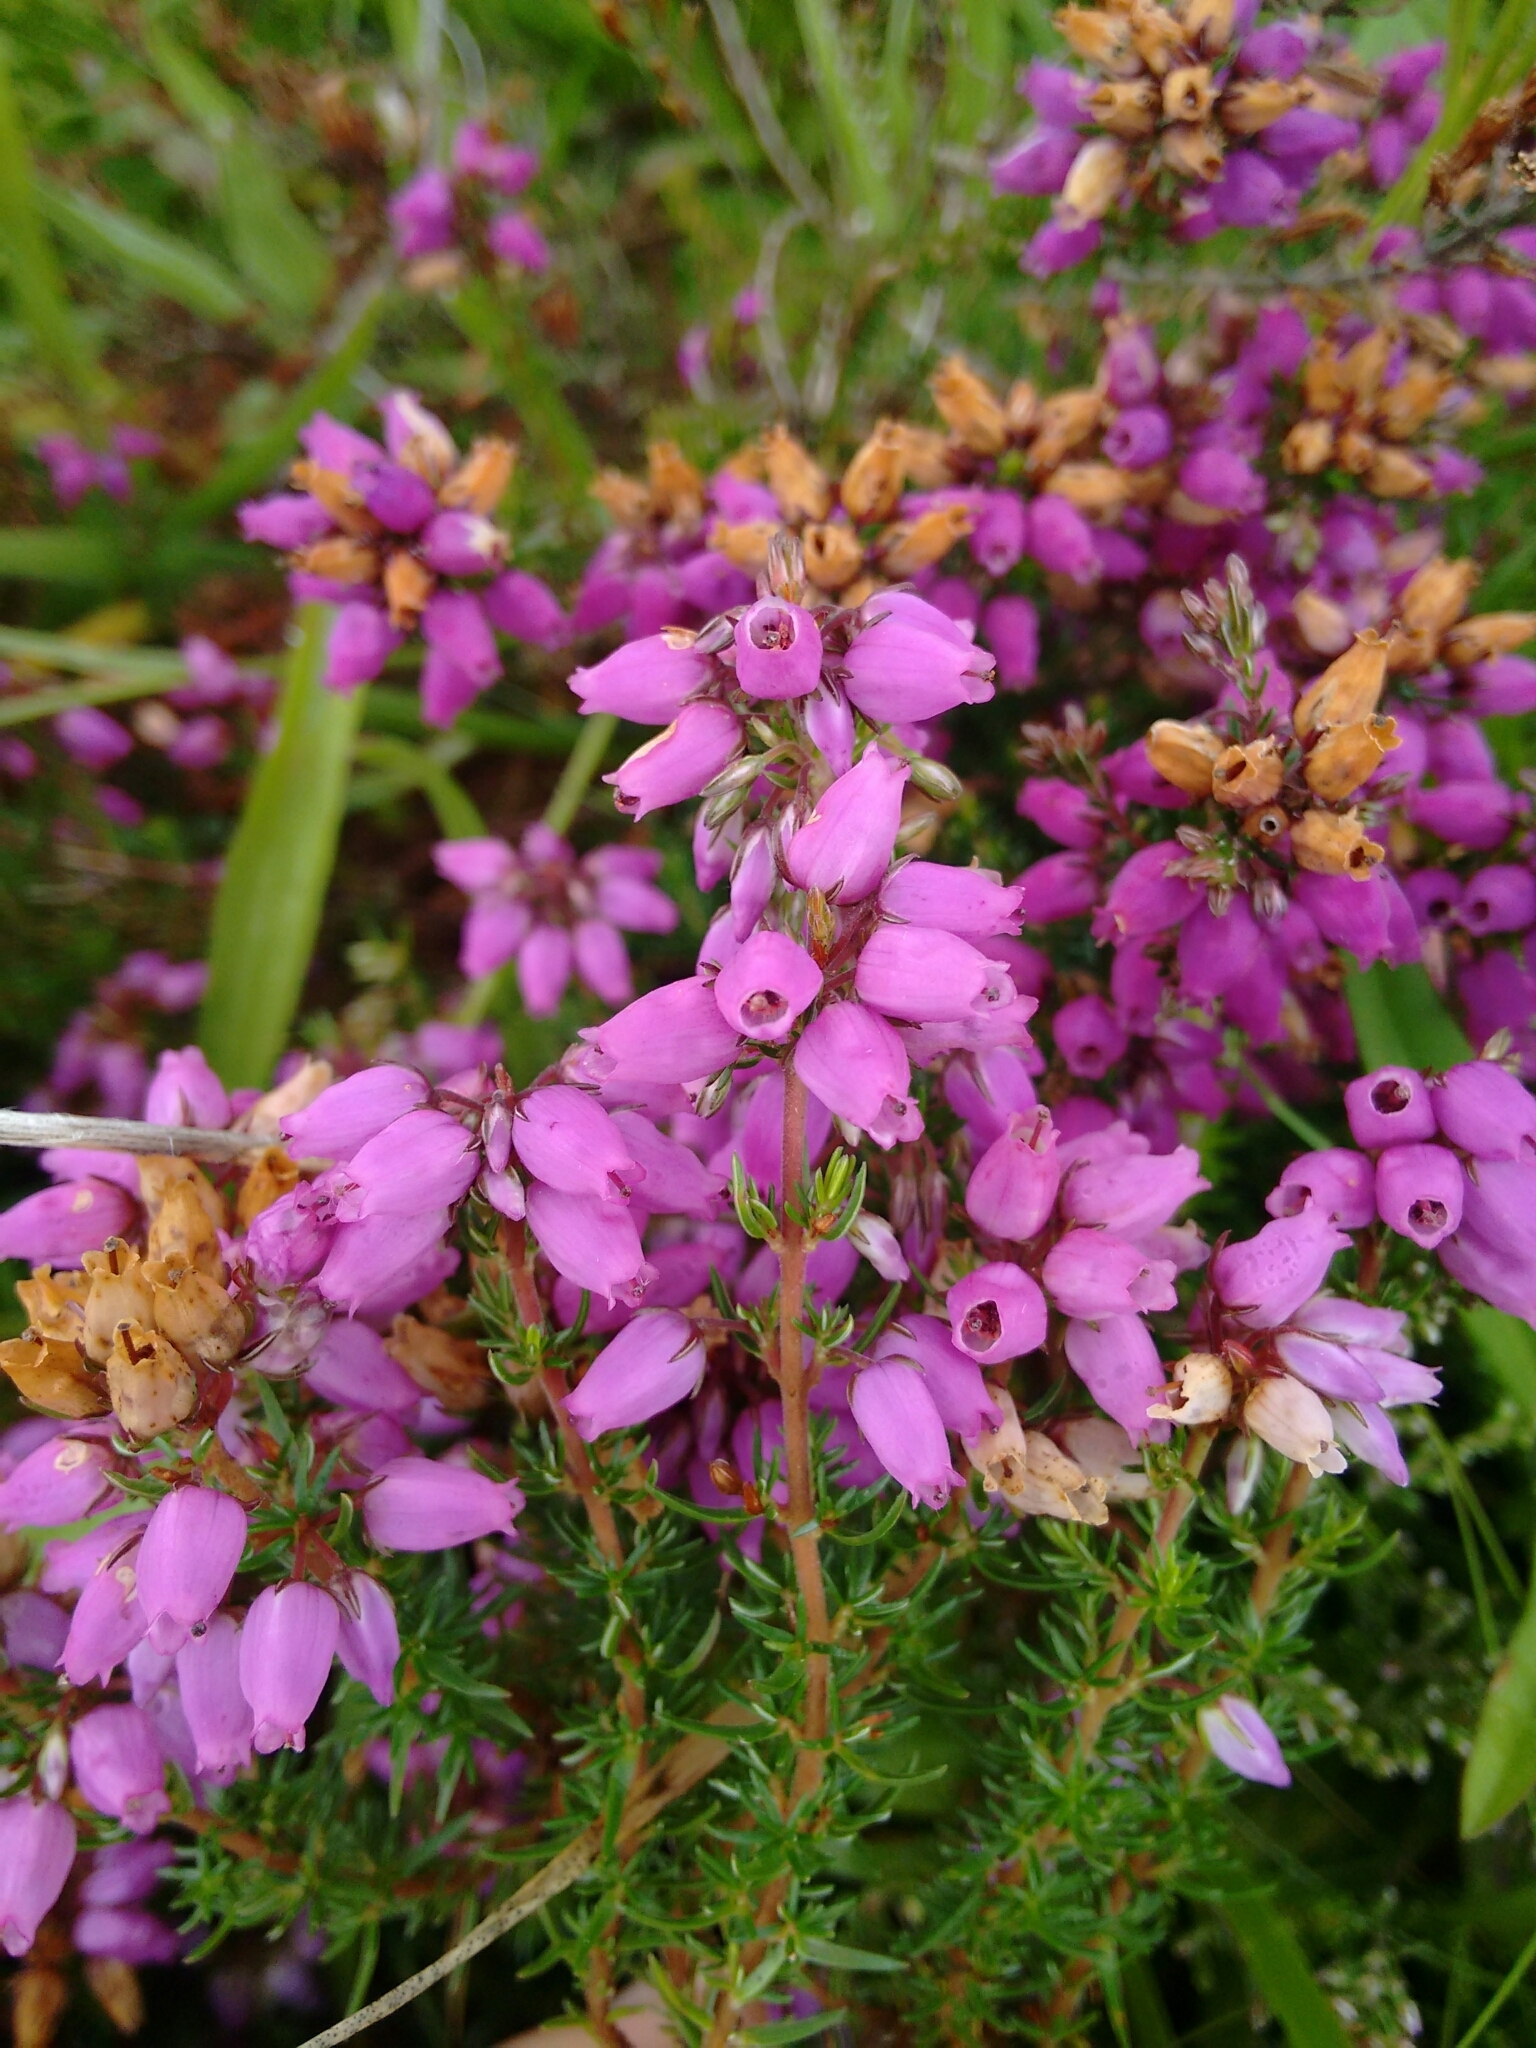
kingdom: Plantae
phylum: Tracheophyta
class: Magnoliopsida
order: Ericales
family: Ericaceae
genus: Erica
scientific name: Erica cinerea
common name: Bell heather
